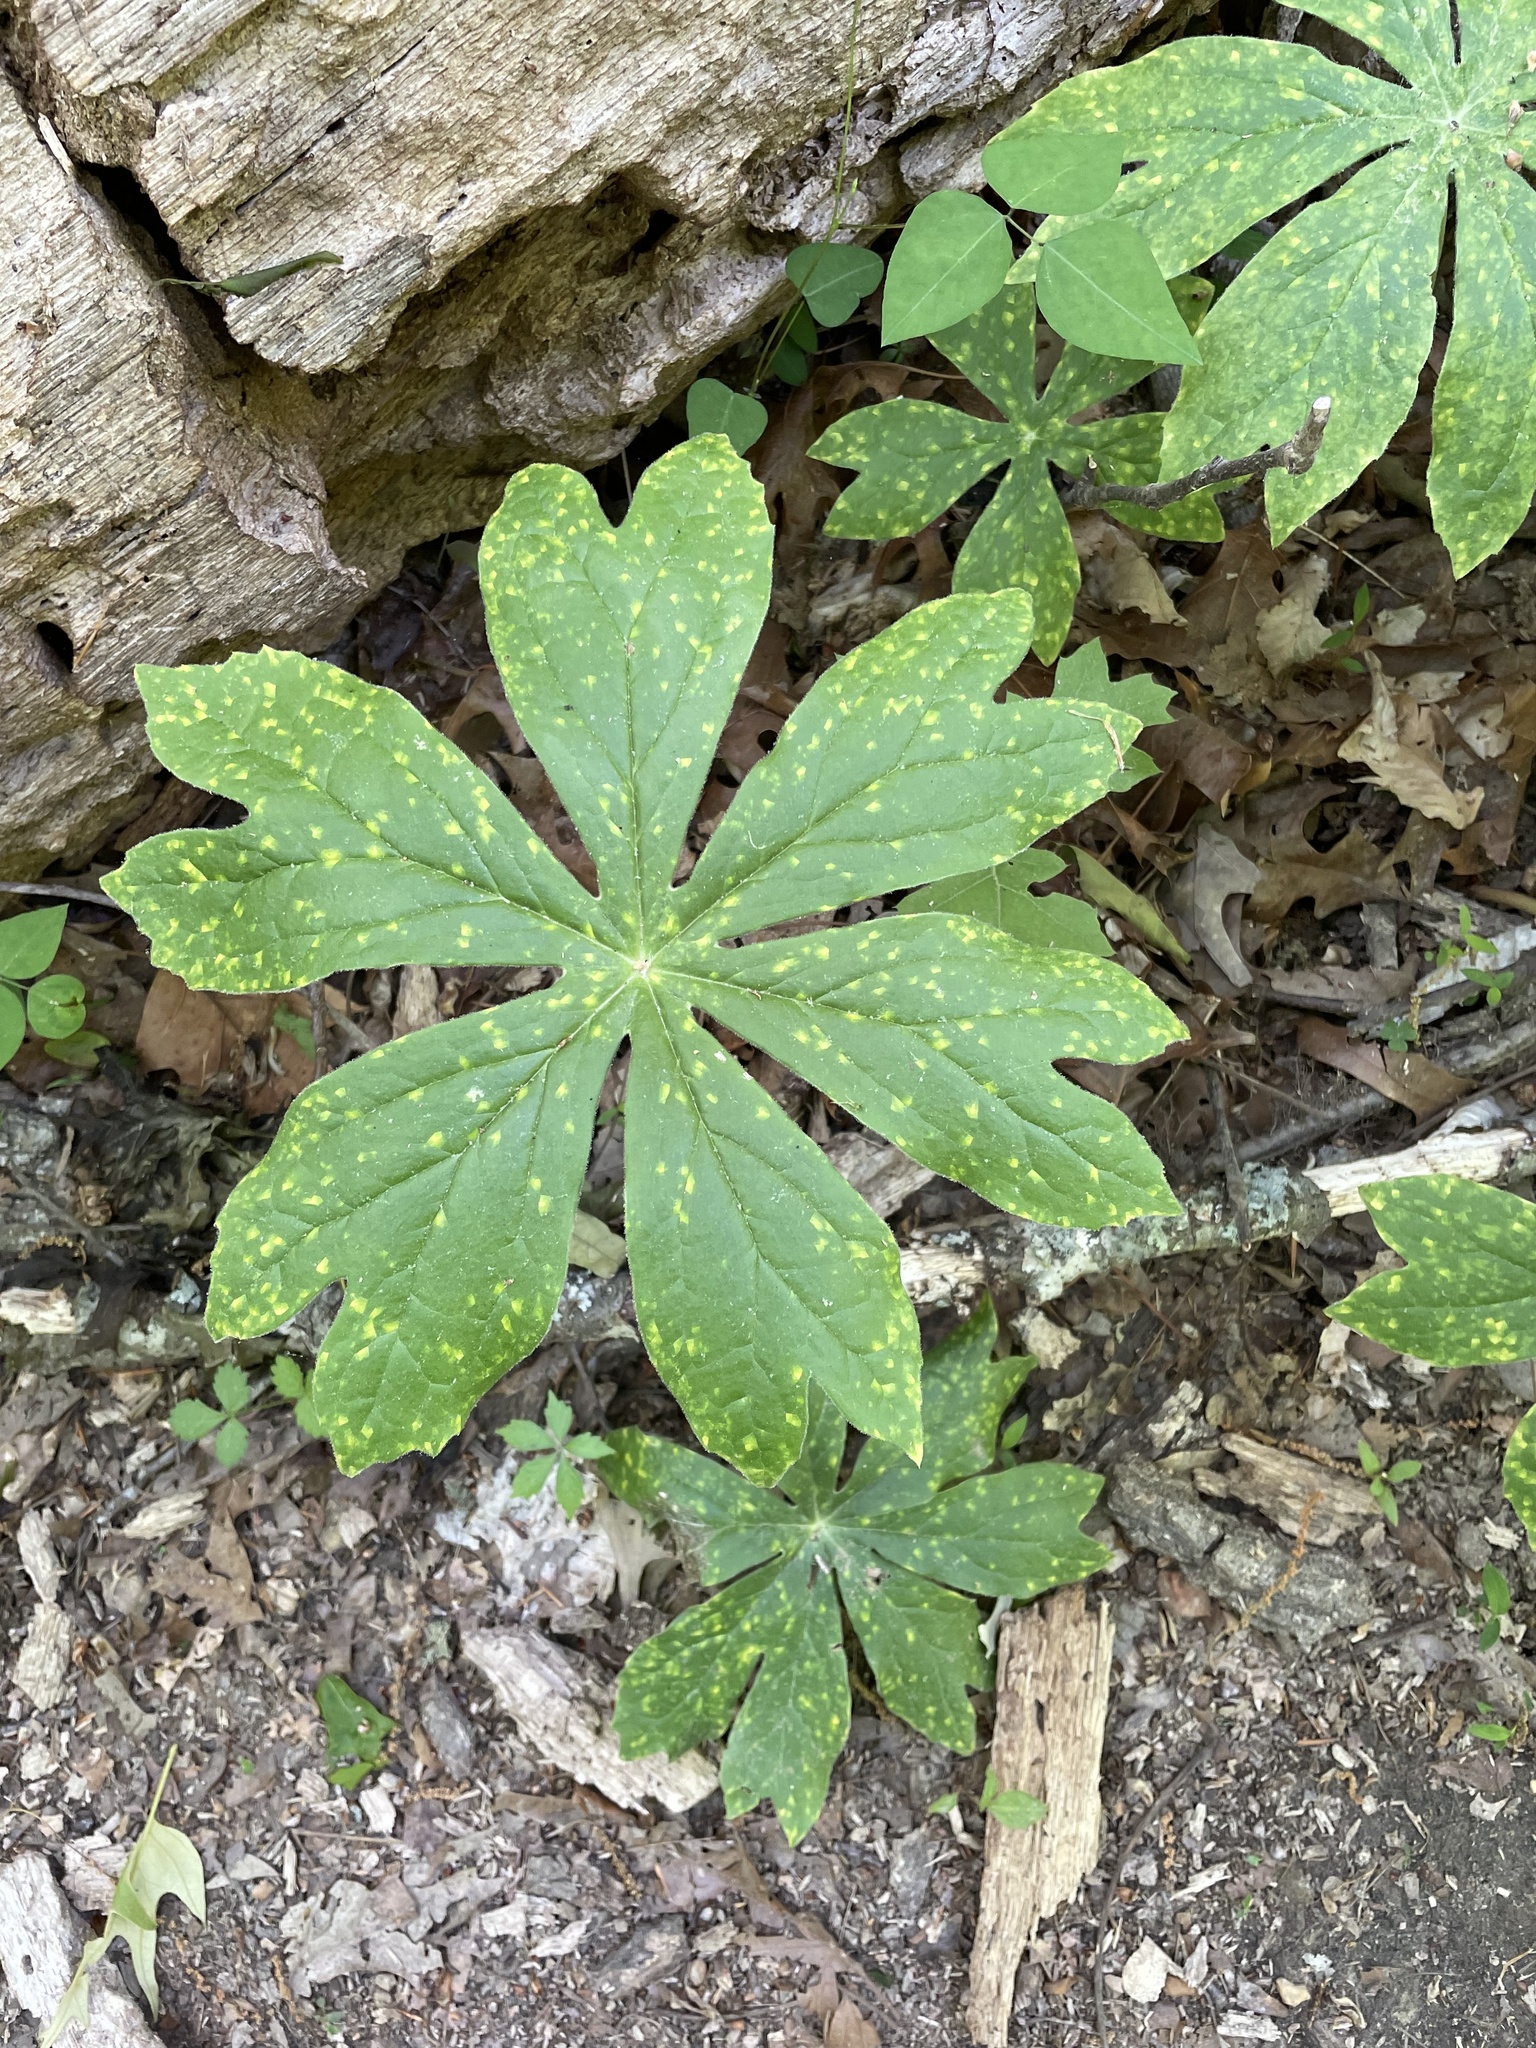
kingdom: Plantae
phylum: Tracheophyta
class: Magnoliopsida
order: Ranunculales
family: Berberidaceae
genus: Podophyllum
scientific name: Podophyllum peltatum
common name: Wild mandrake
